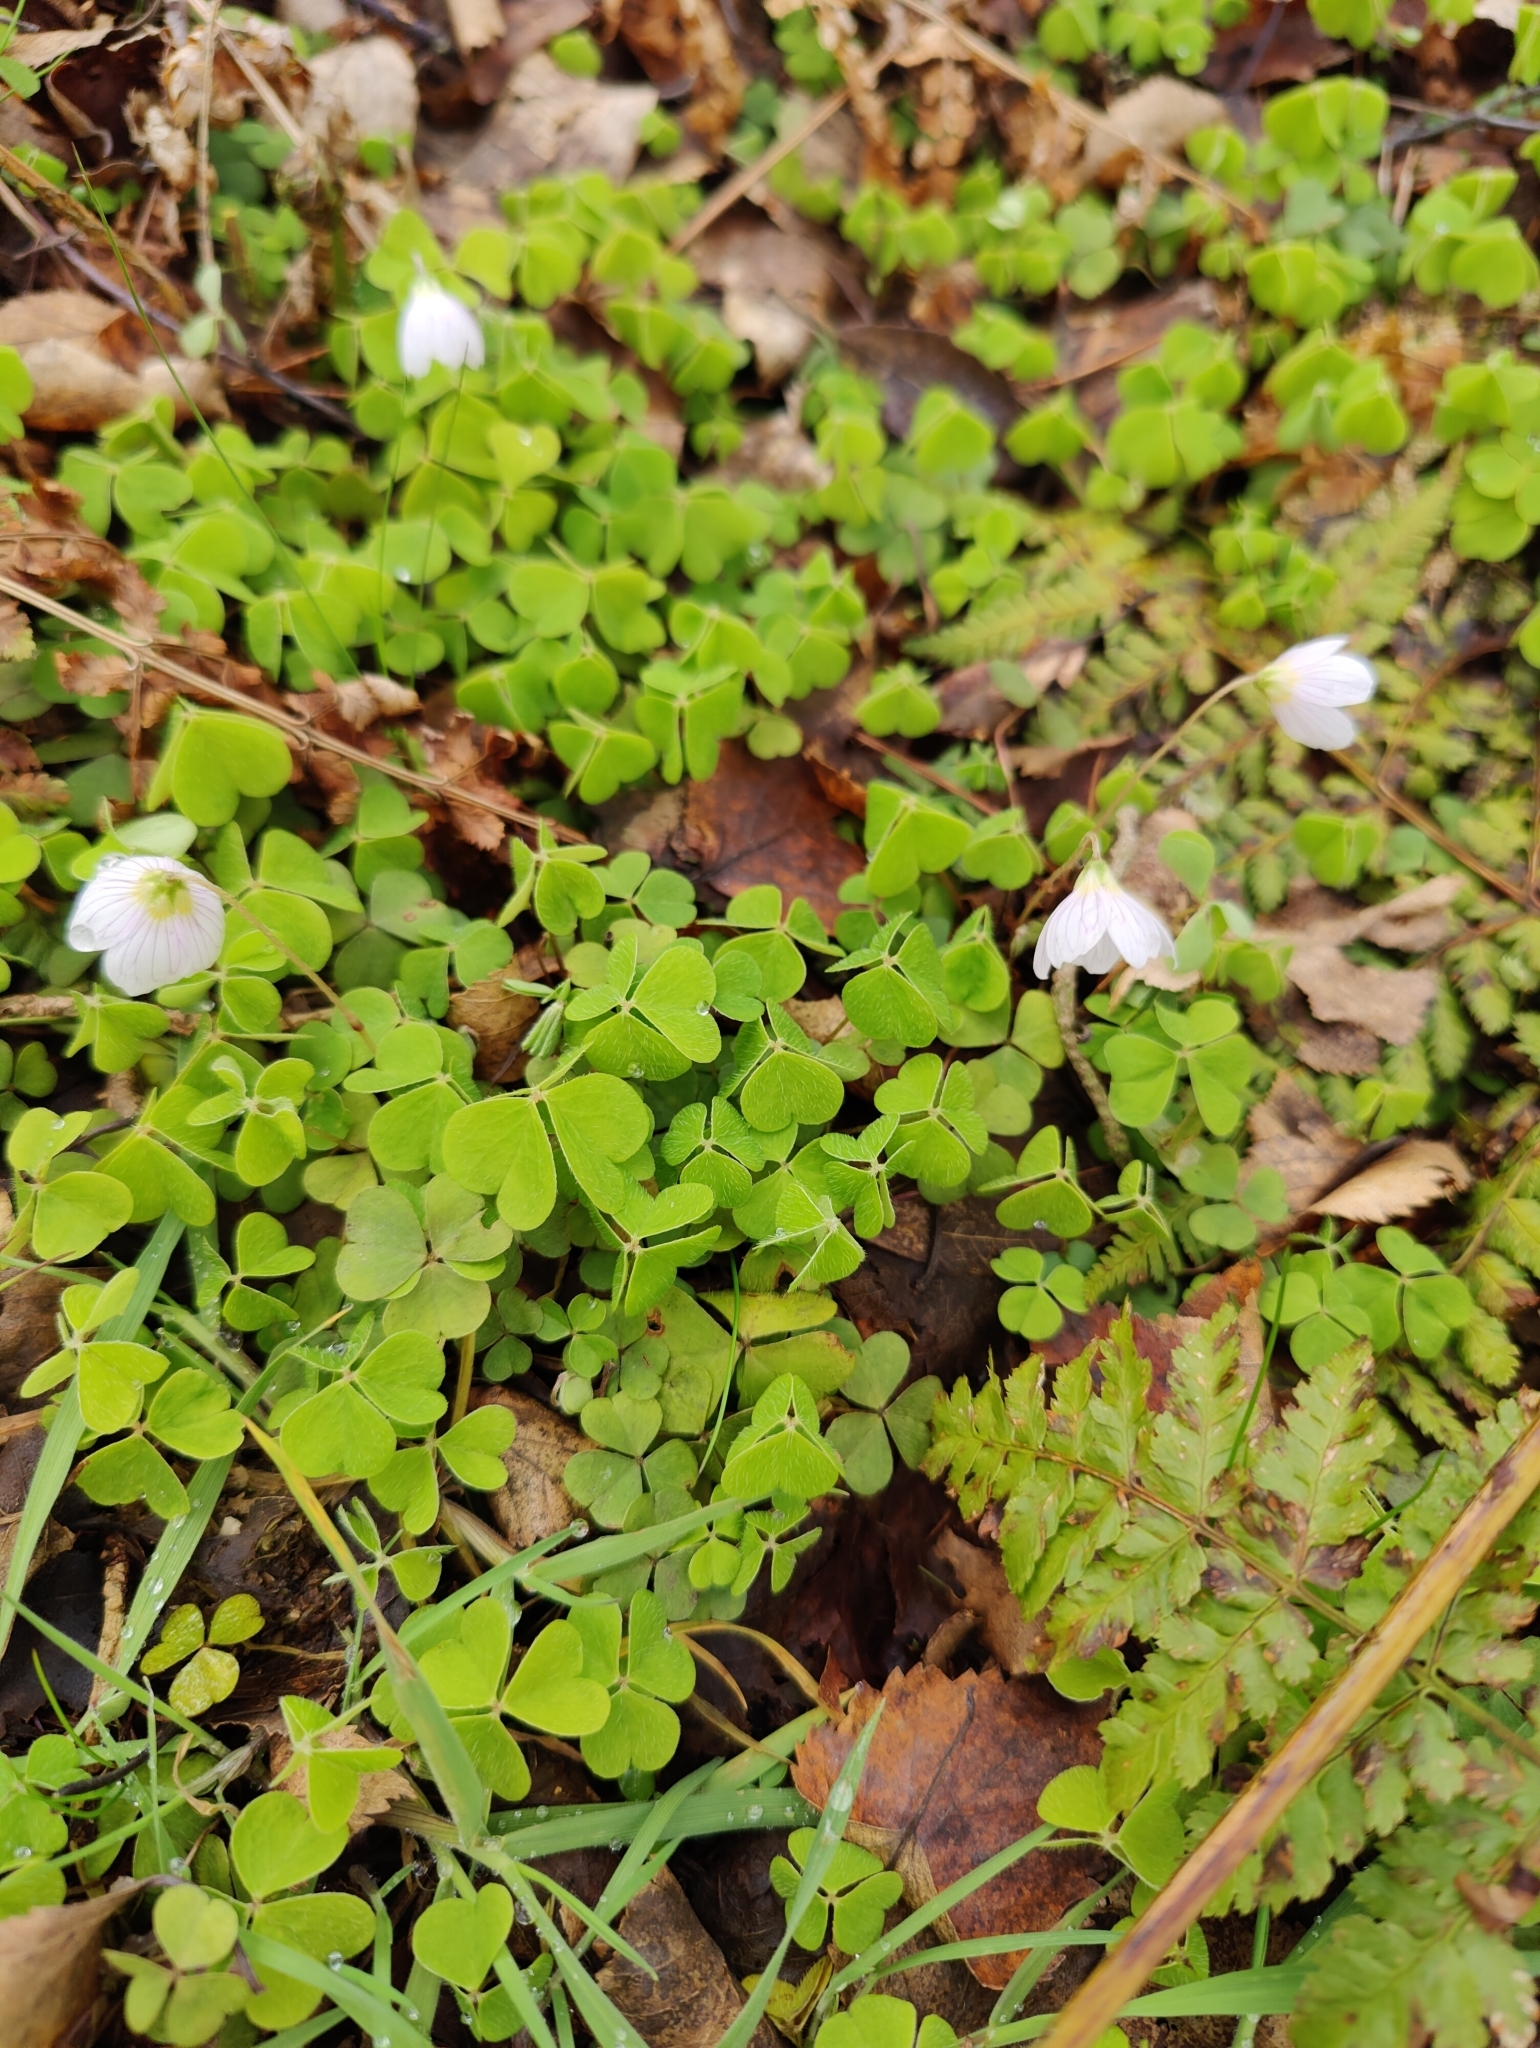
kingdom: Plantae
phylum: Tracheophyta
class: Magnoliopsida
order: Oxalidales
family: Oxalidaceae
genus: Oxalis
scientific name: Oxalis acetosella
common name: Wood-sorrel
